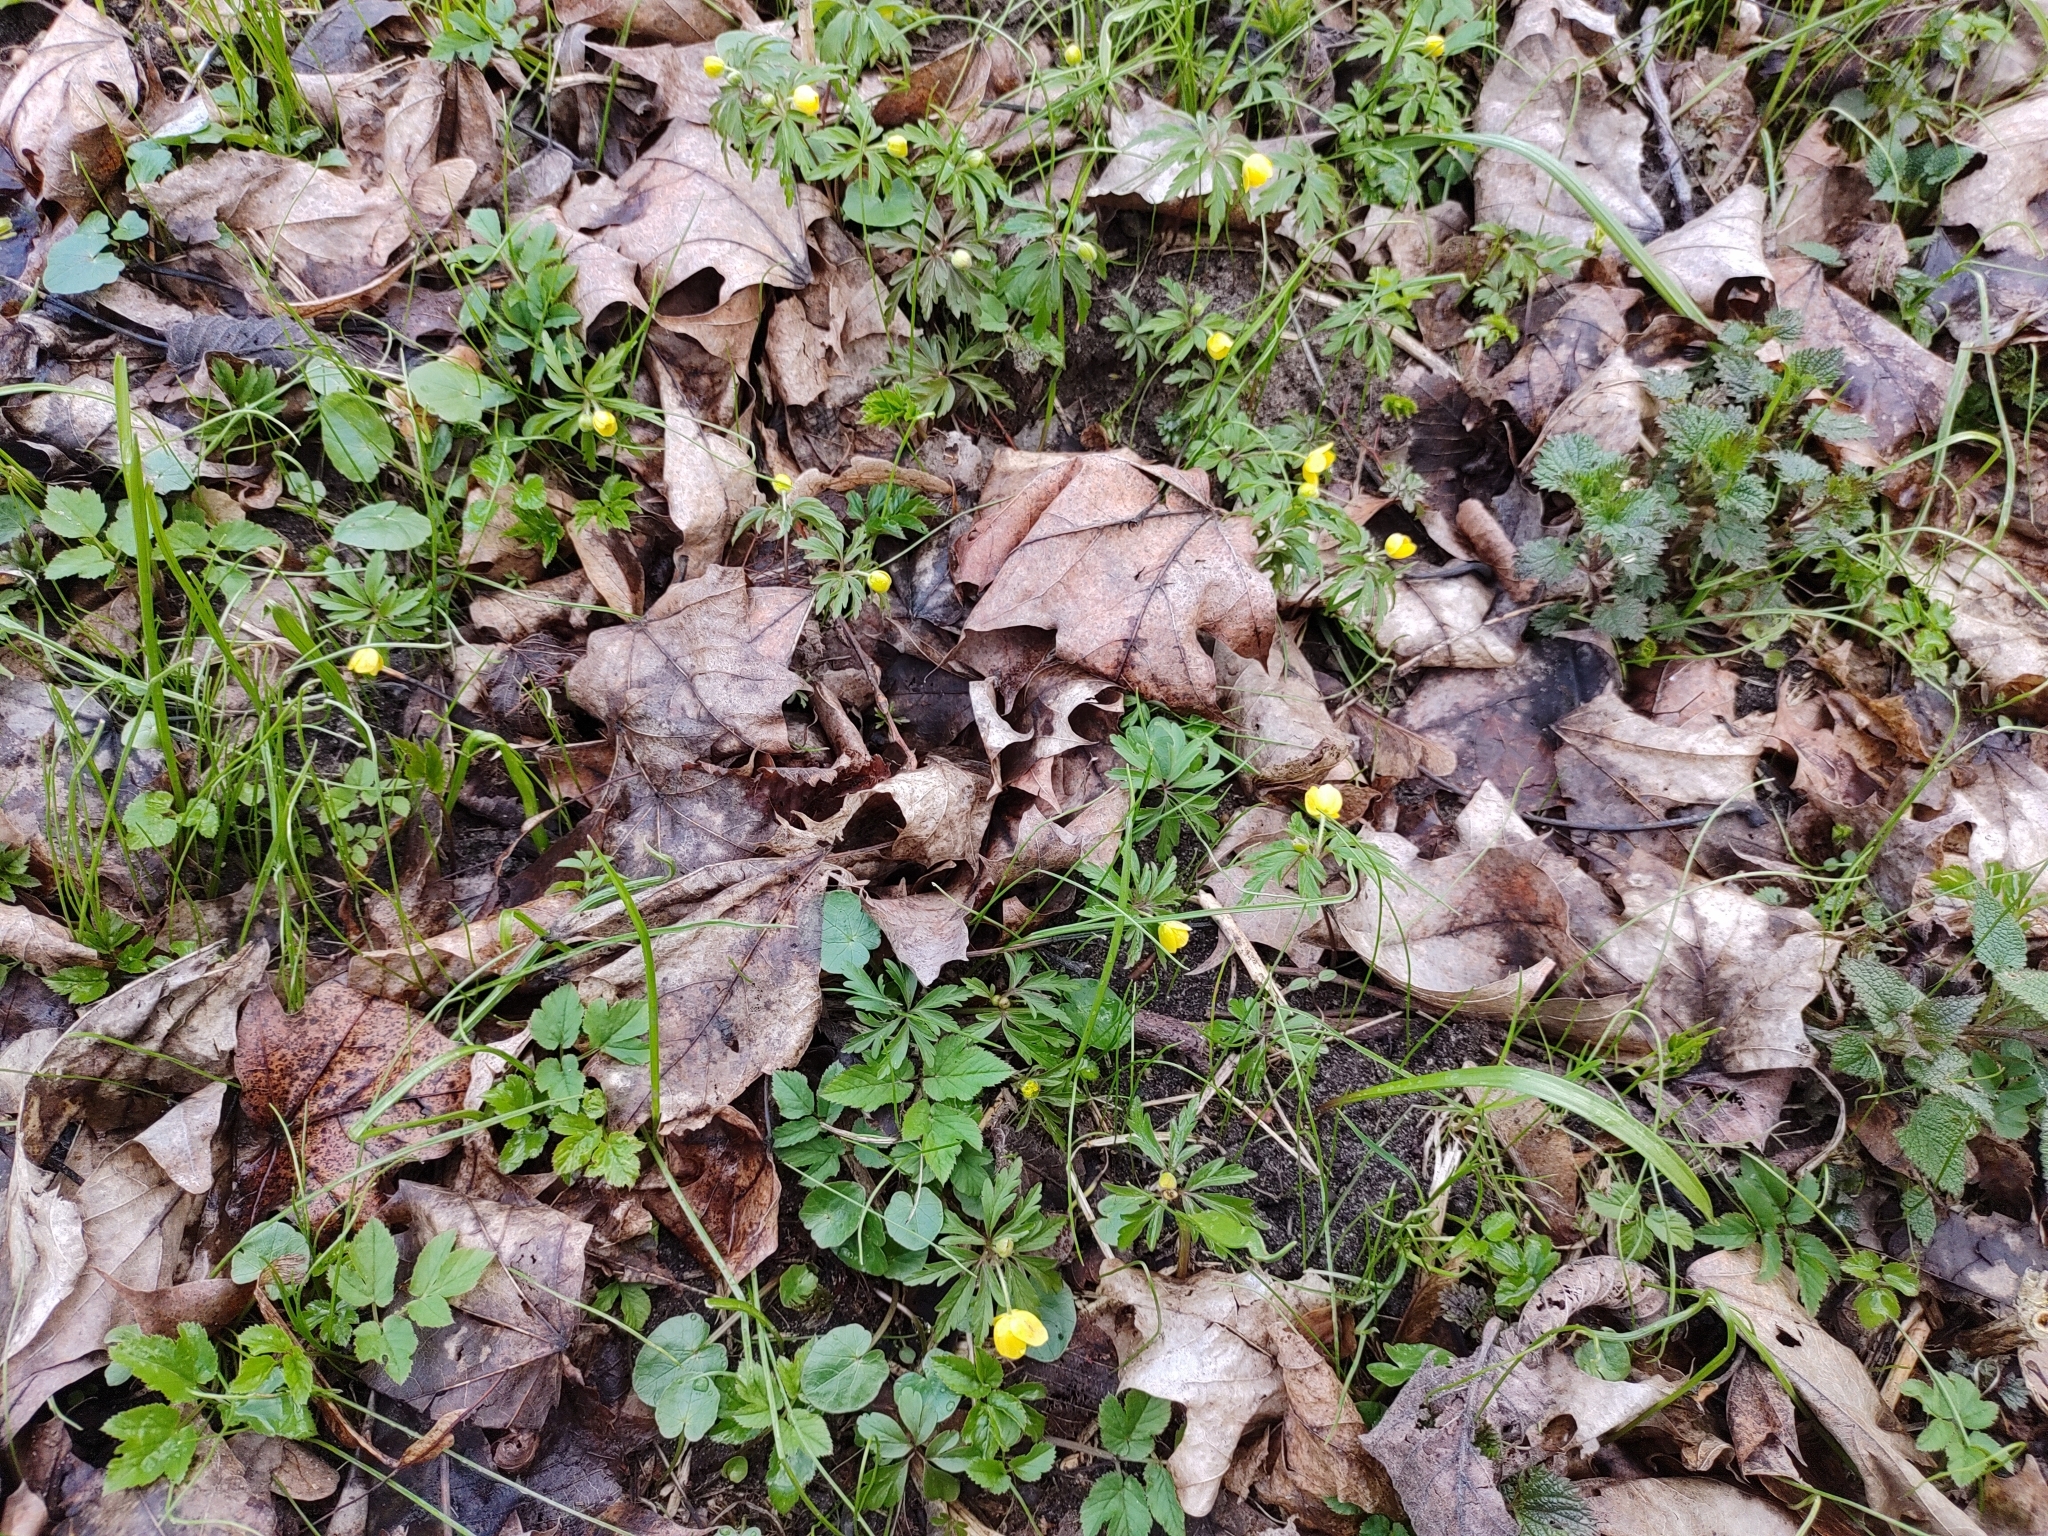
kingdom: Plantae
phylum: Tracheophyta
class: Magnoliopsida
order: Ranunculales
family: Ranunculaceae
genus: Anemone
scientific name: Anemone ranunculoides
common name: Yellow anemone
